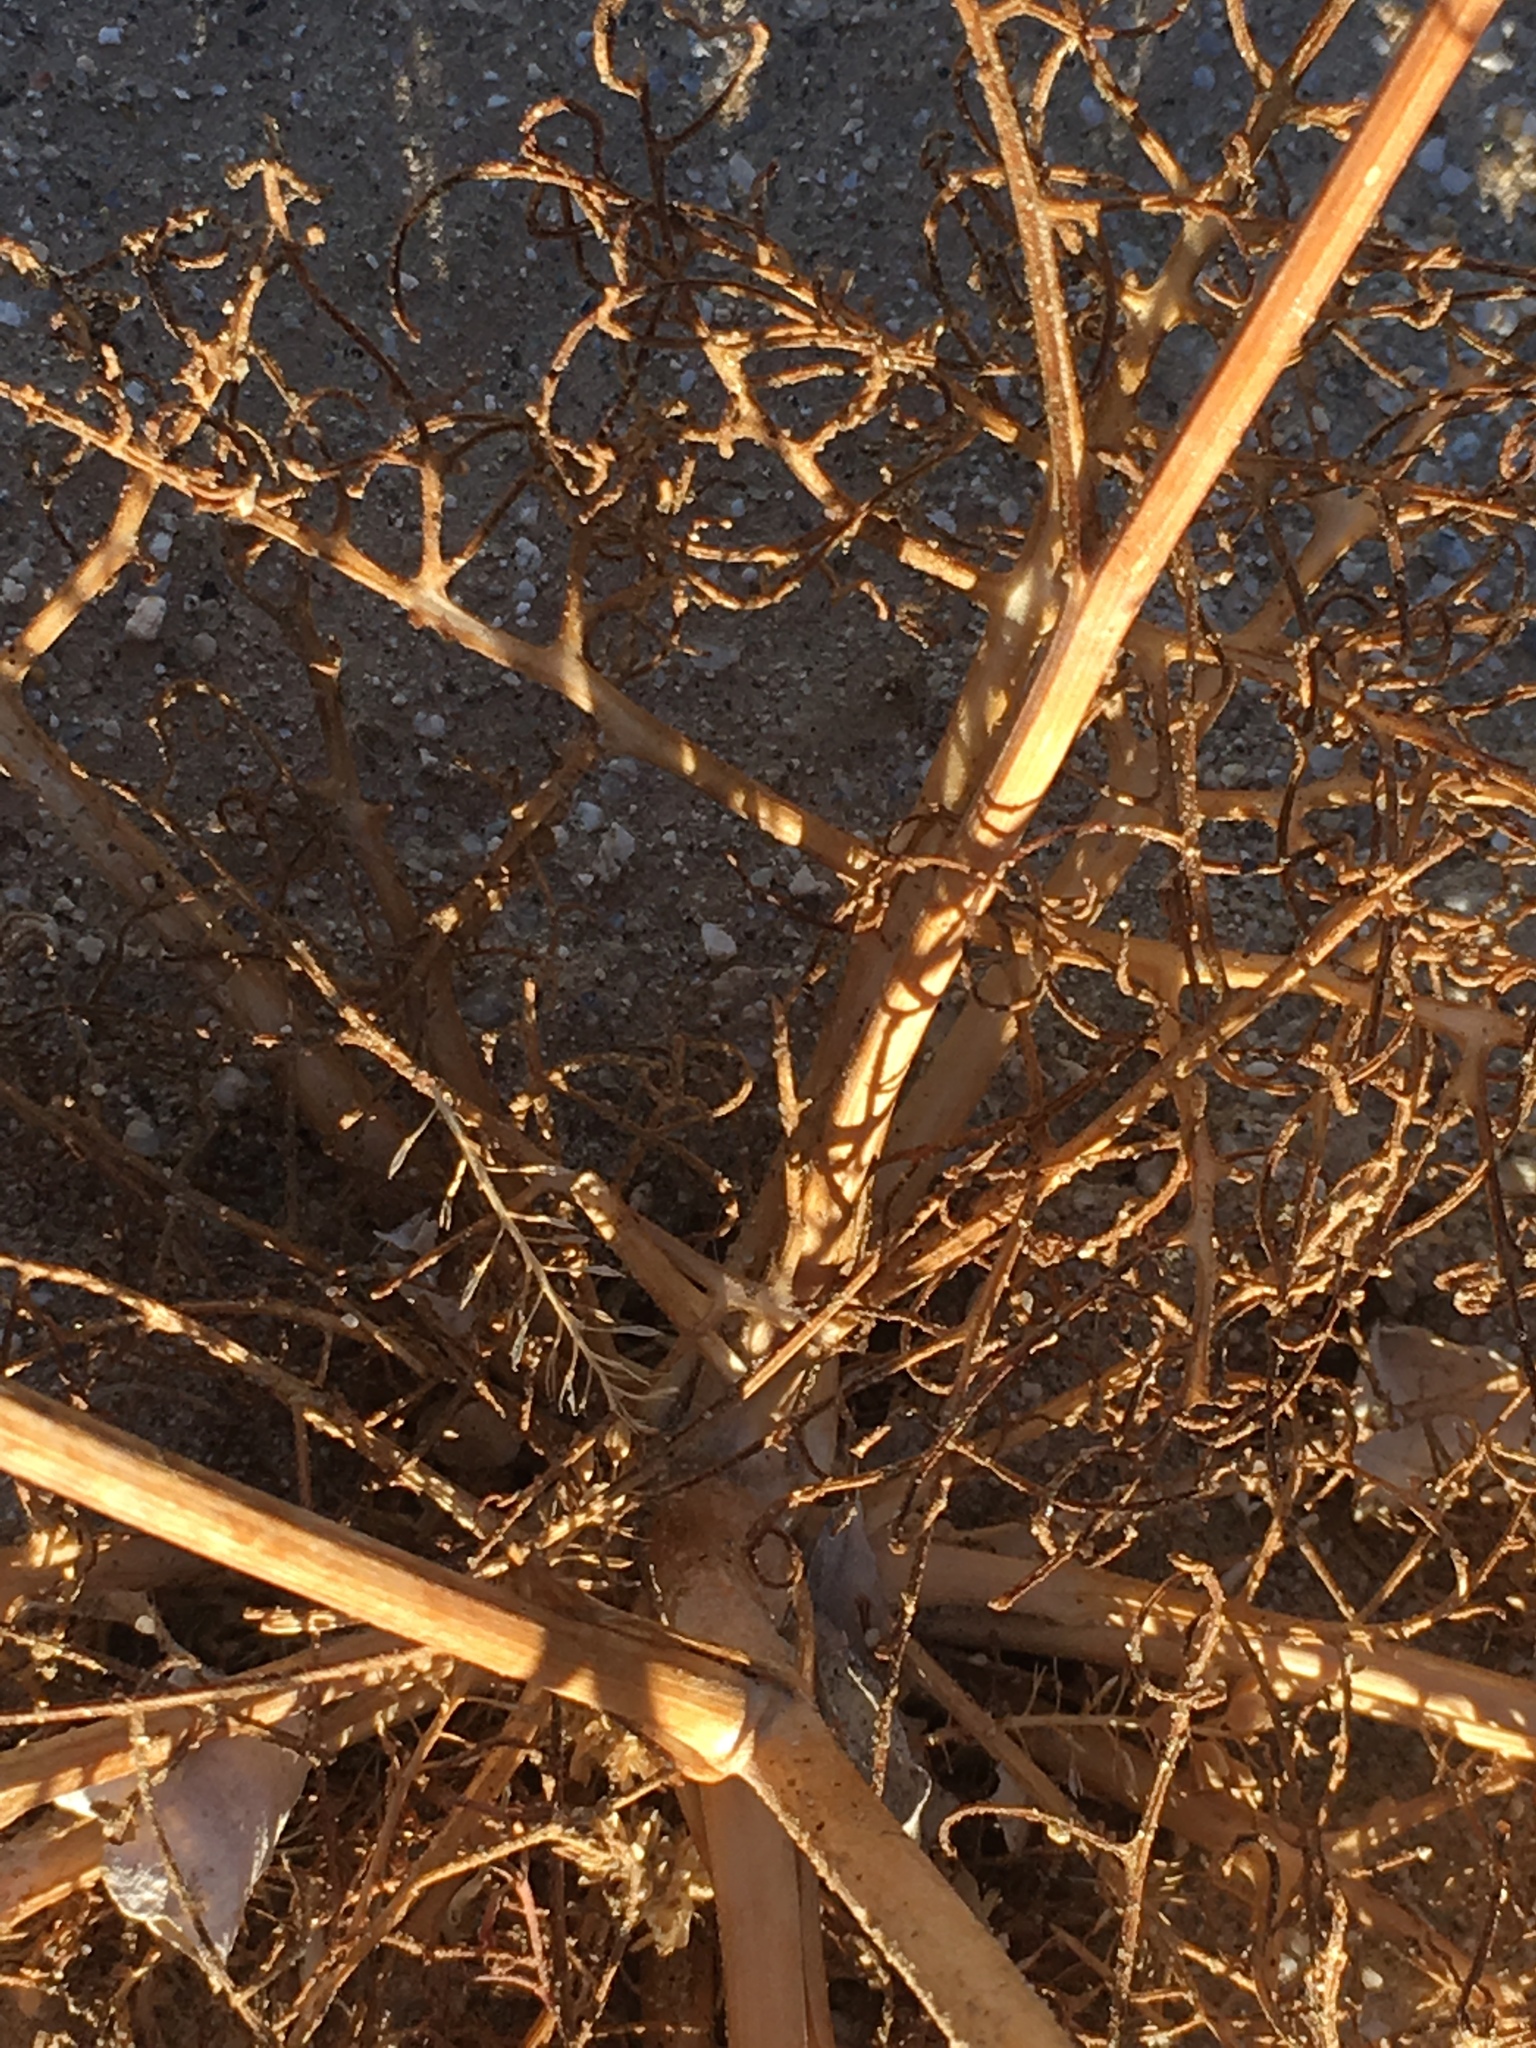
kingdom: Plantae
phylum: Tracheophyta
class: Magnoliopsida
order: Asterales
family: Asteraceae
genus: Chaenactis
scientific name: Chaenactis carphoclinia
